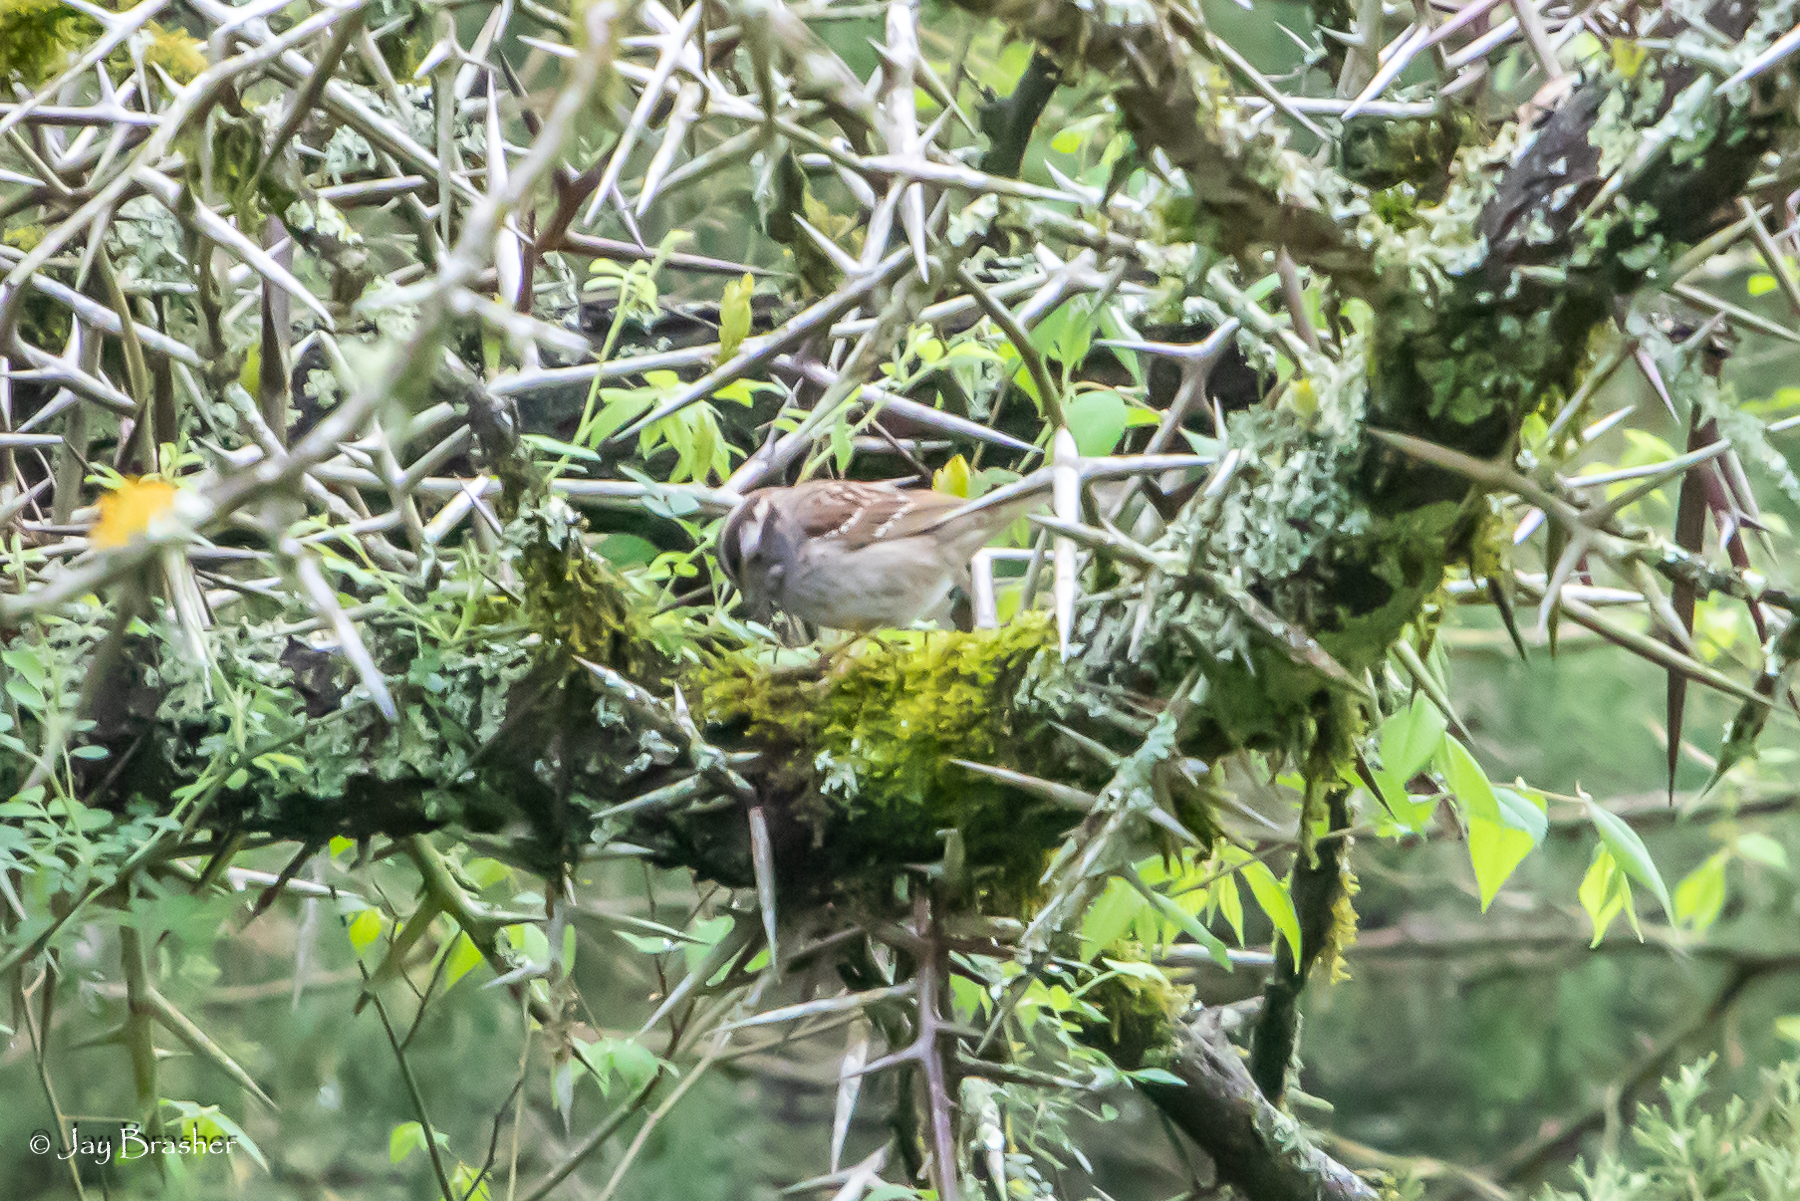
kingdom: Animalia
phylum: Chordata
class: Aves
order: Passeriformes
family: Passerellidae
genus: Zonotrichia
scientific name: Zonotrichia albicollis
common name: White-throated sparrow
